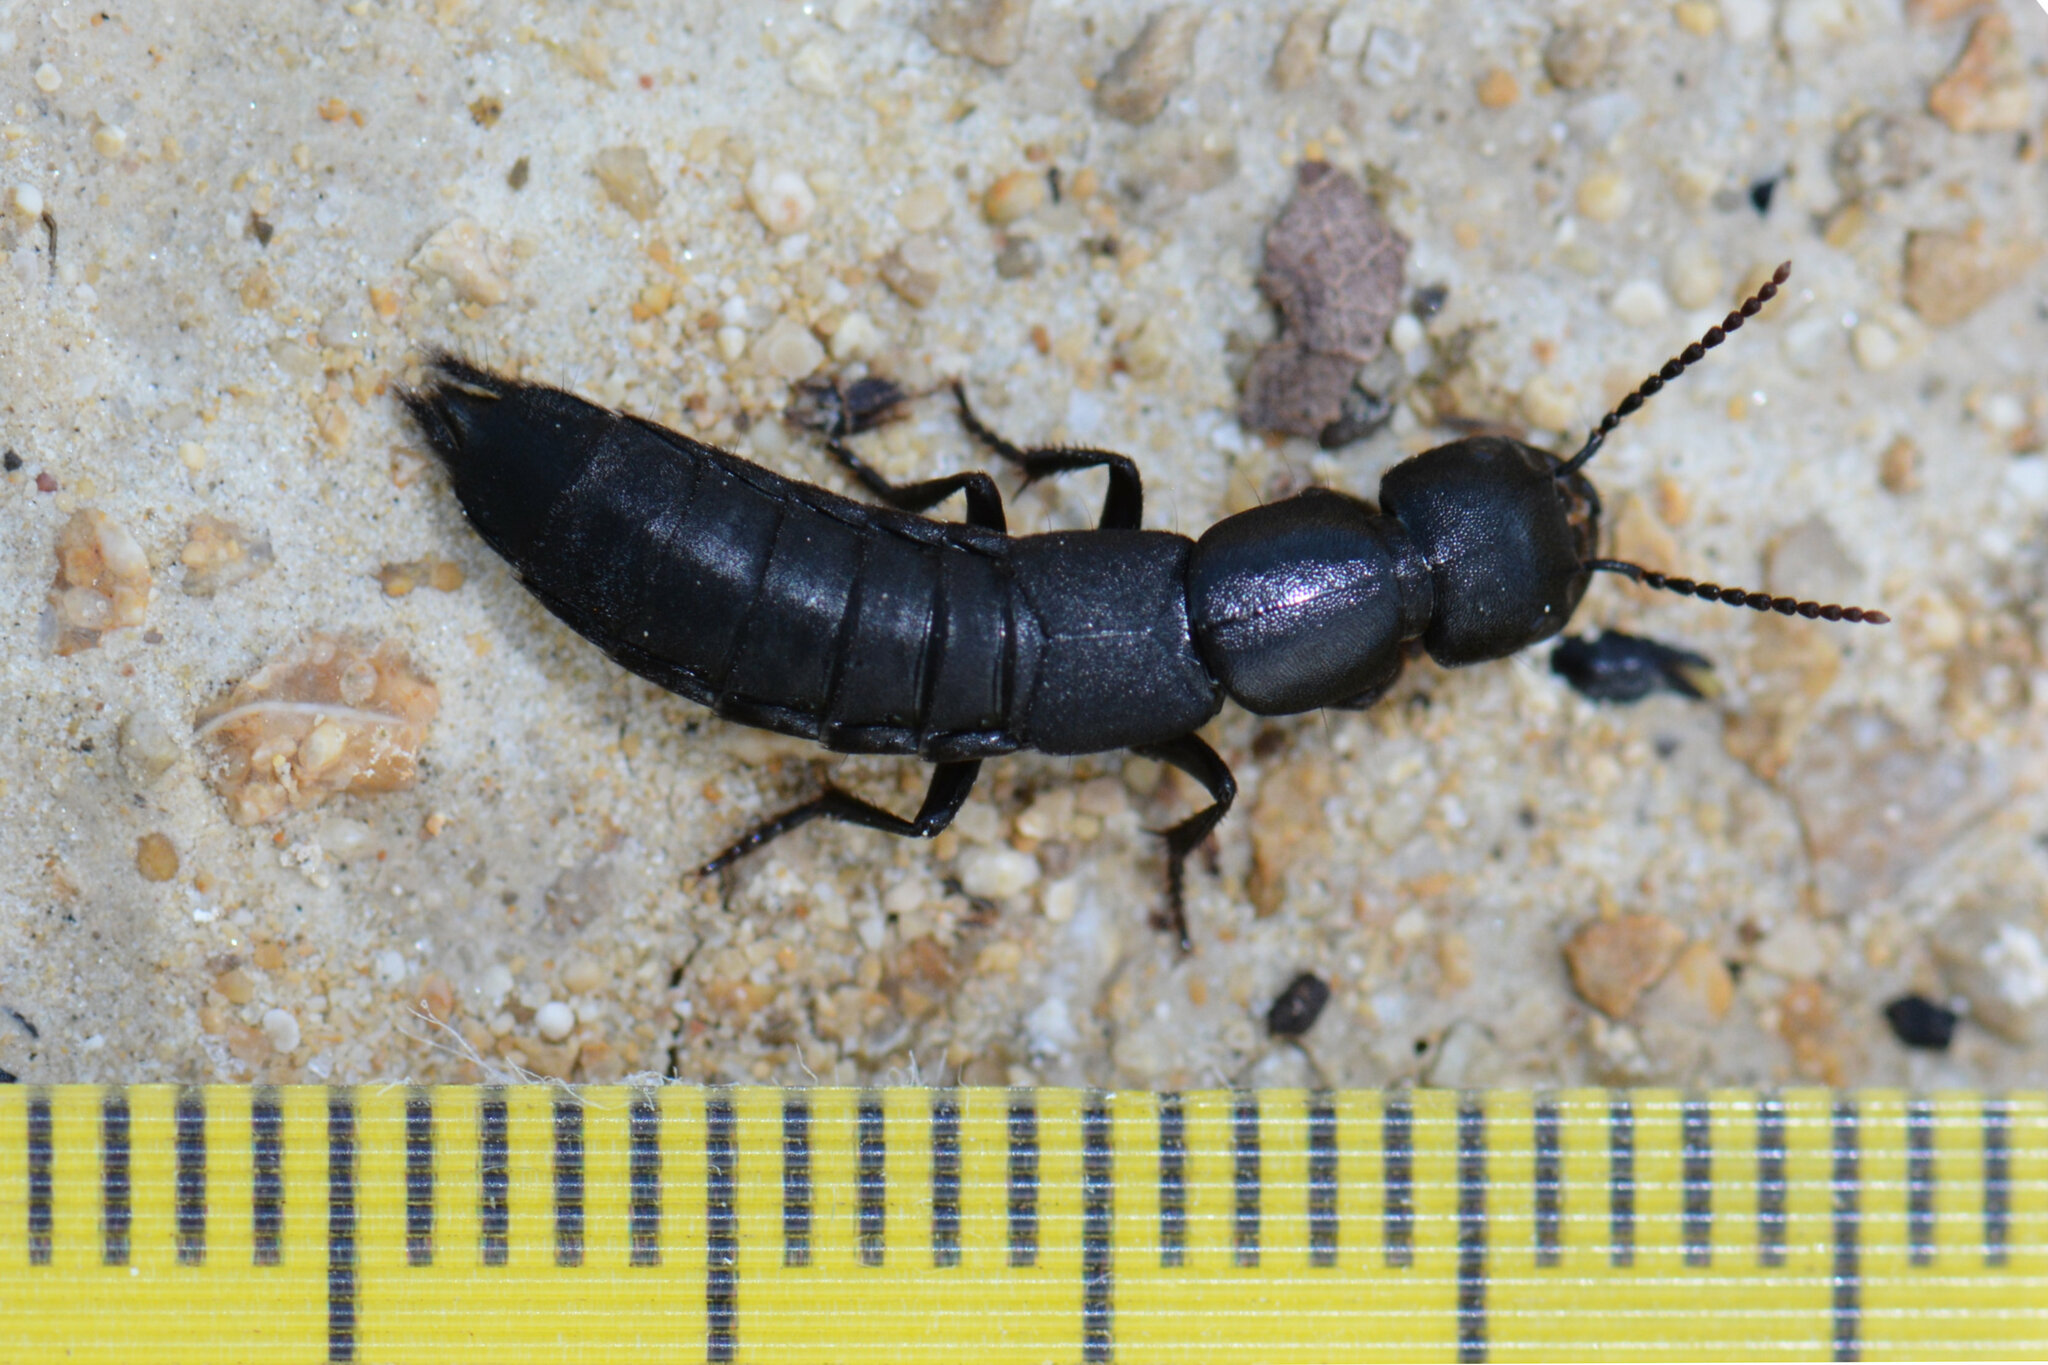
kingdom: Animalia
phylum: Arthropoda
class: Insecta
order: Coleoptera
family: Staphylinidae
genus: Ocypus
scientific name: Ocypus nitens
